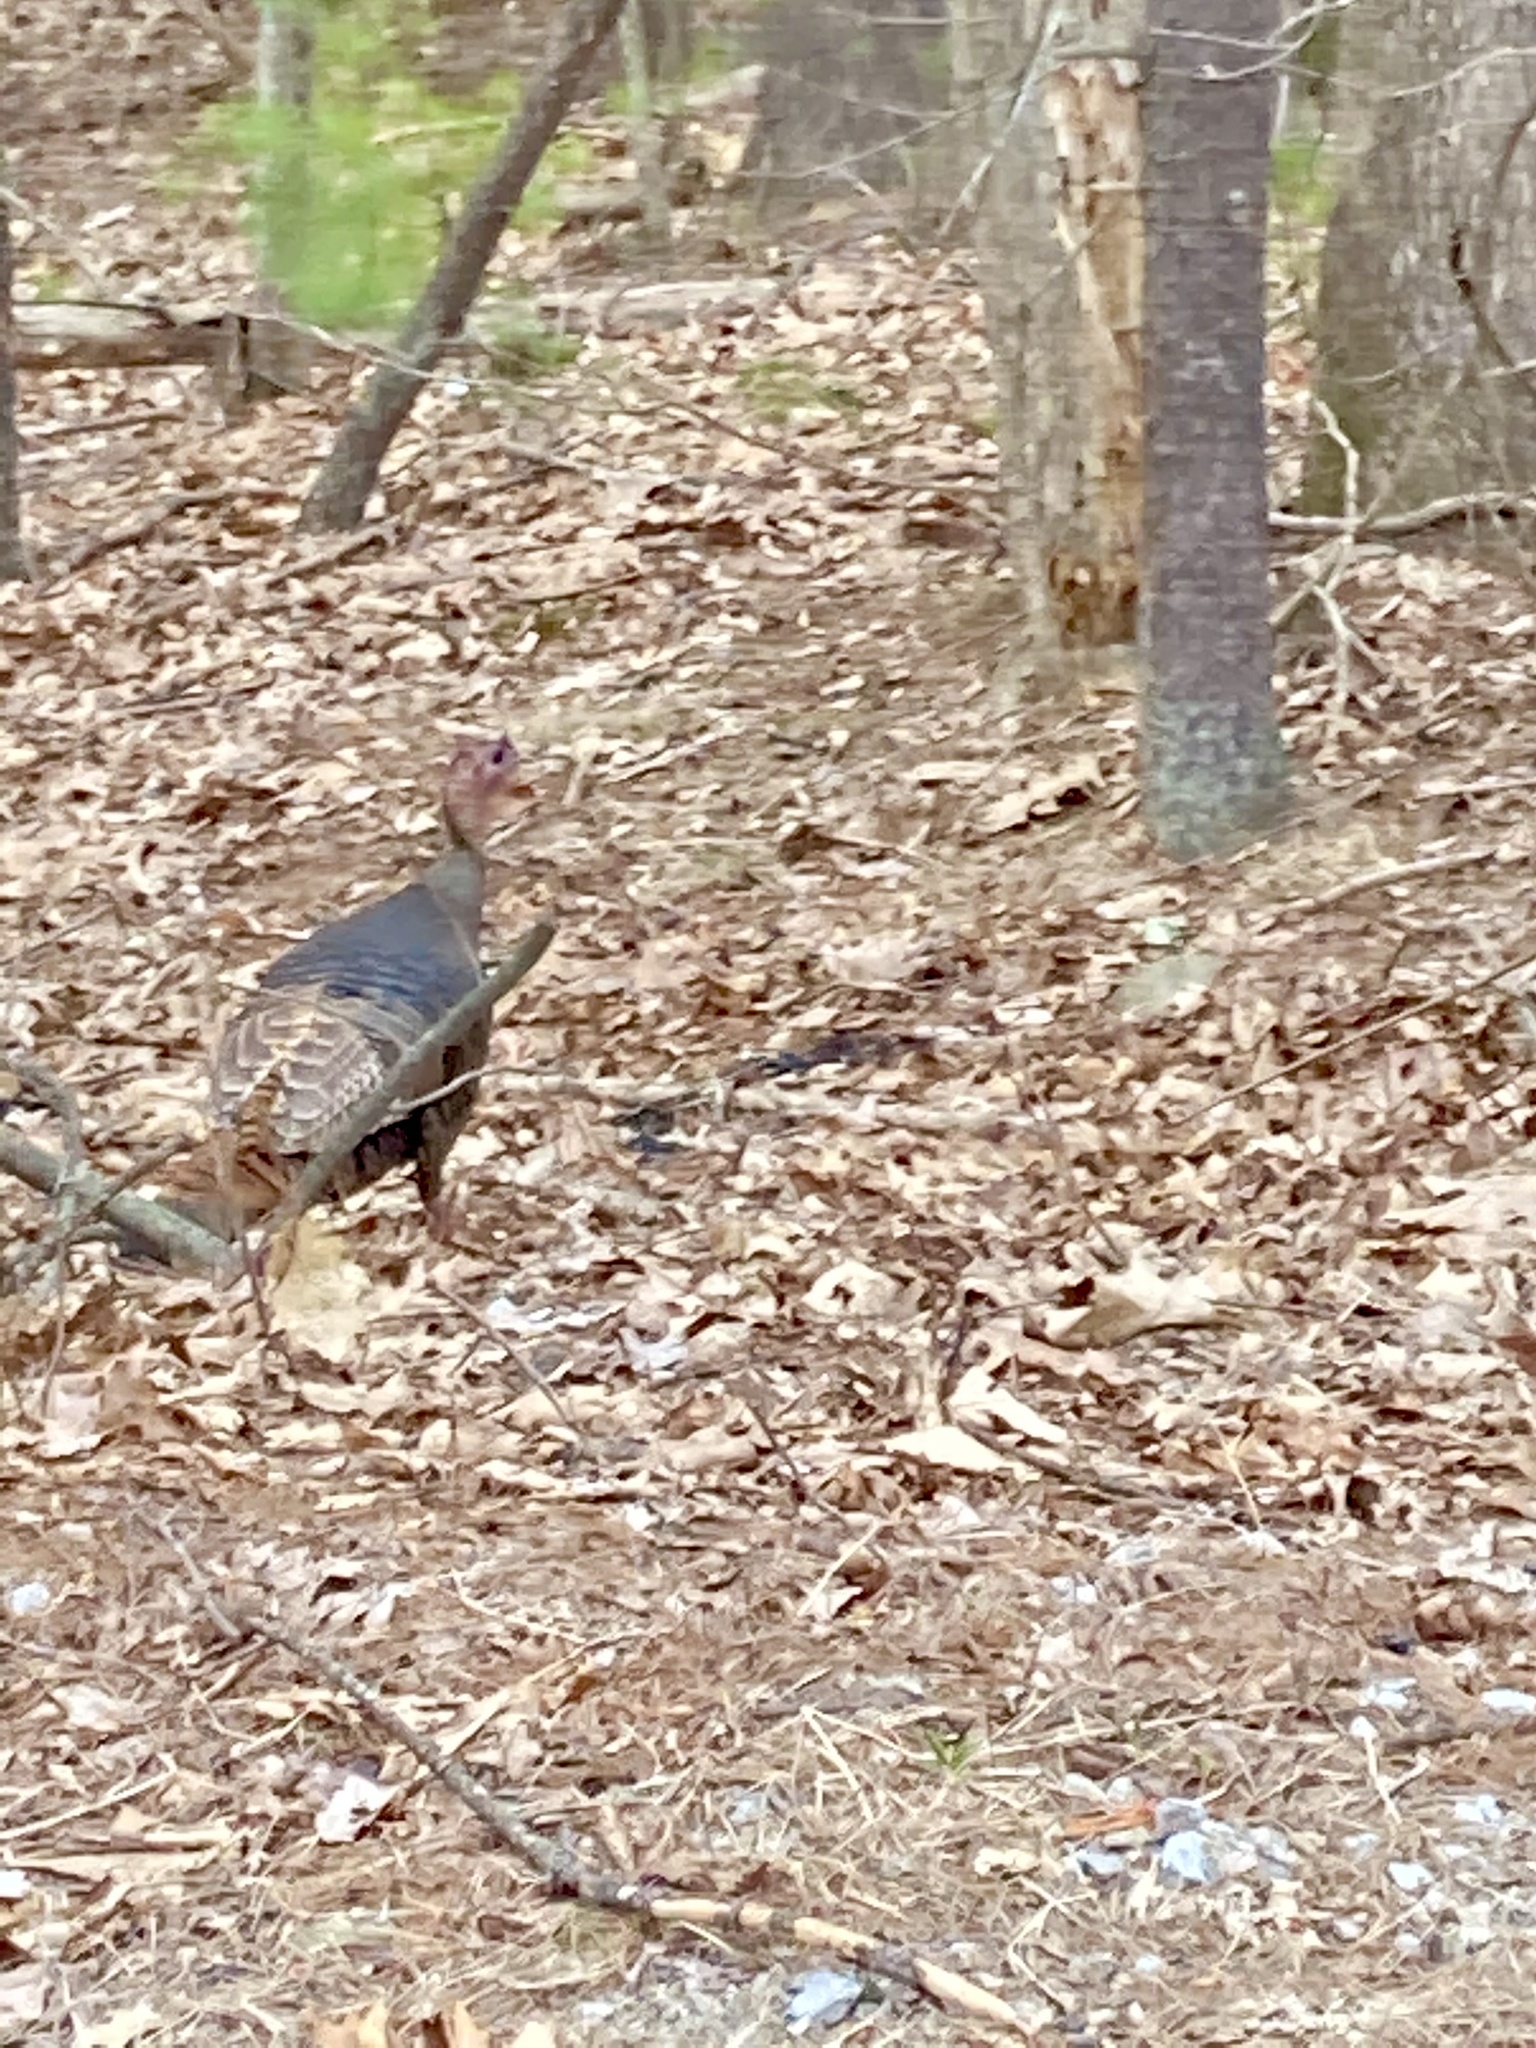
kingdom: Animalia
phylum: Chordata
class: Aves
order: Galliformes
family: Phasianidae
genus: Meleagris
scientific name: Meleagris gallopavo
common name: Wild turkey
